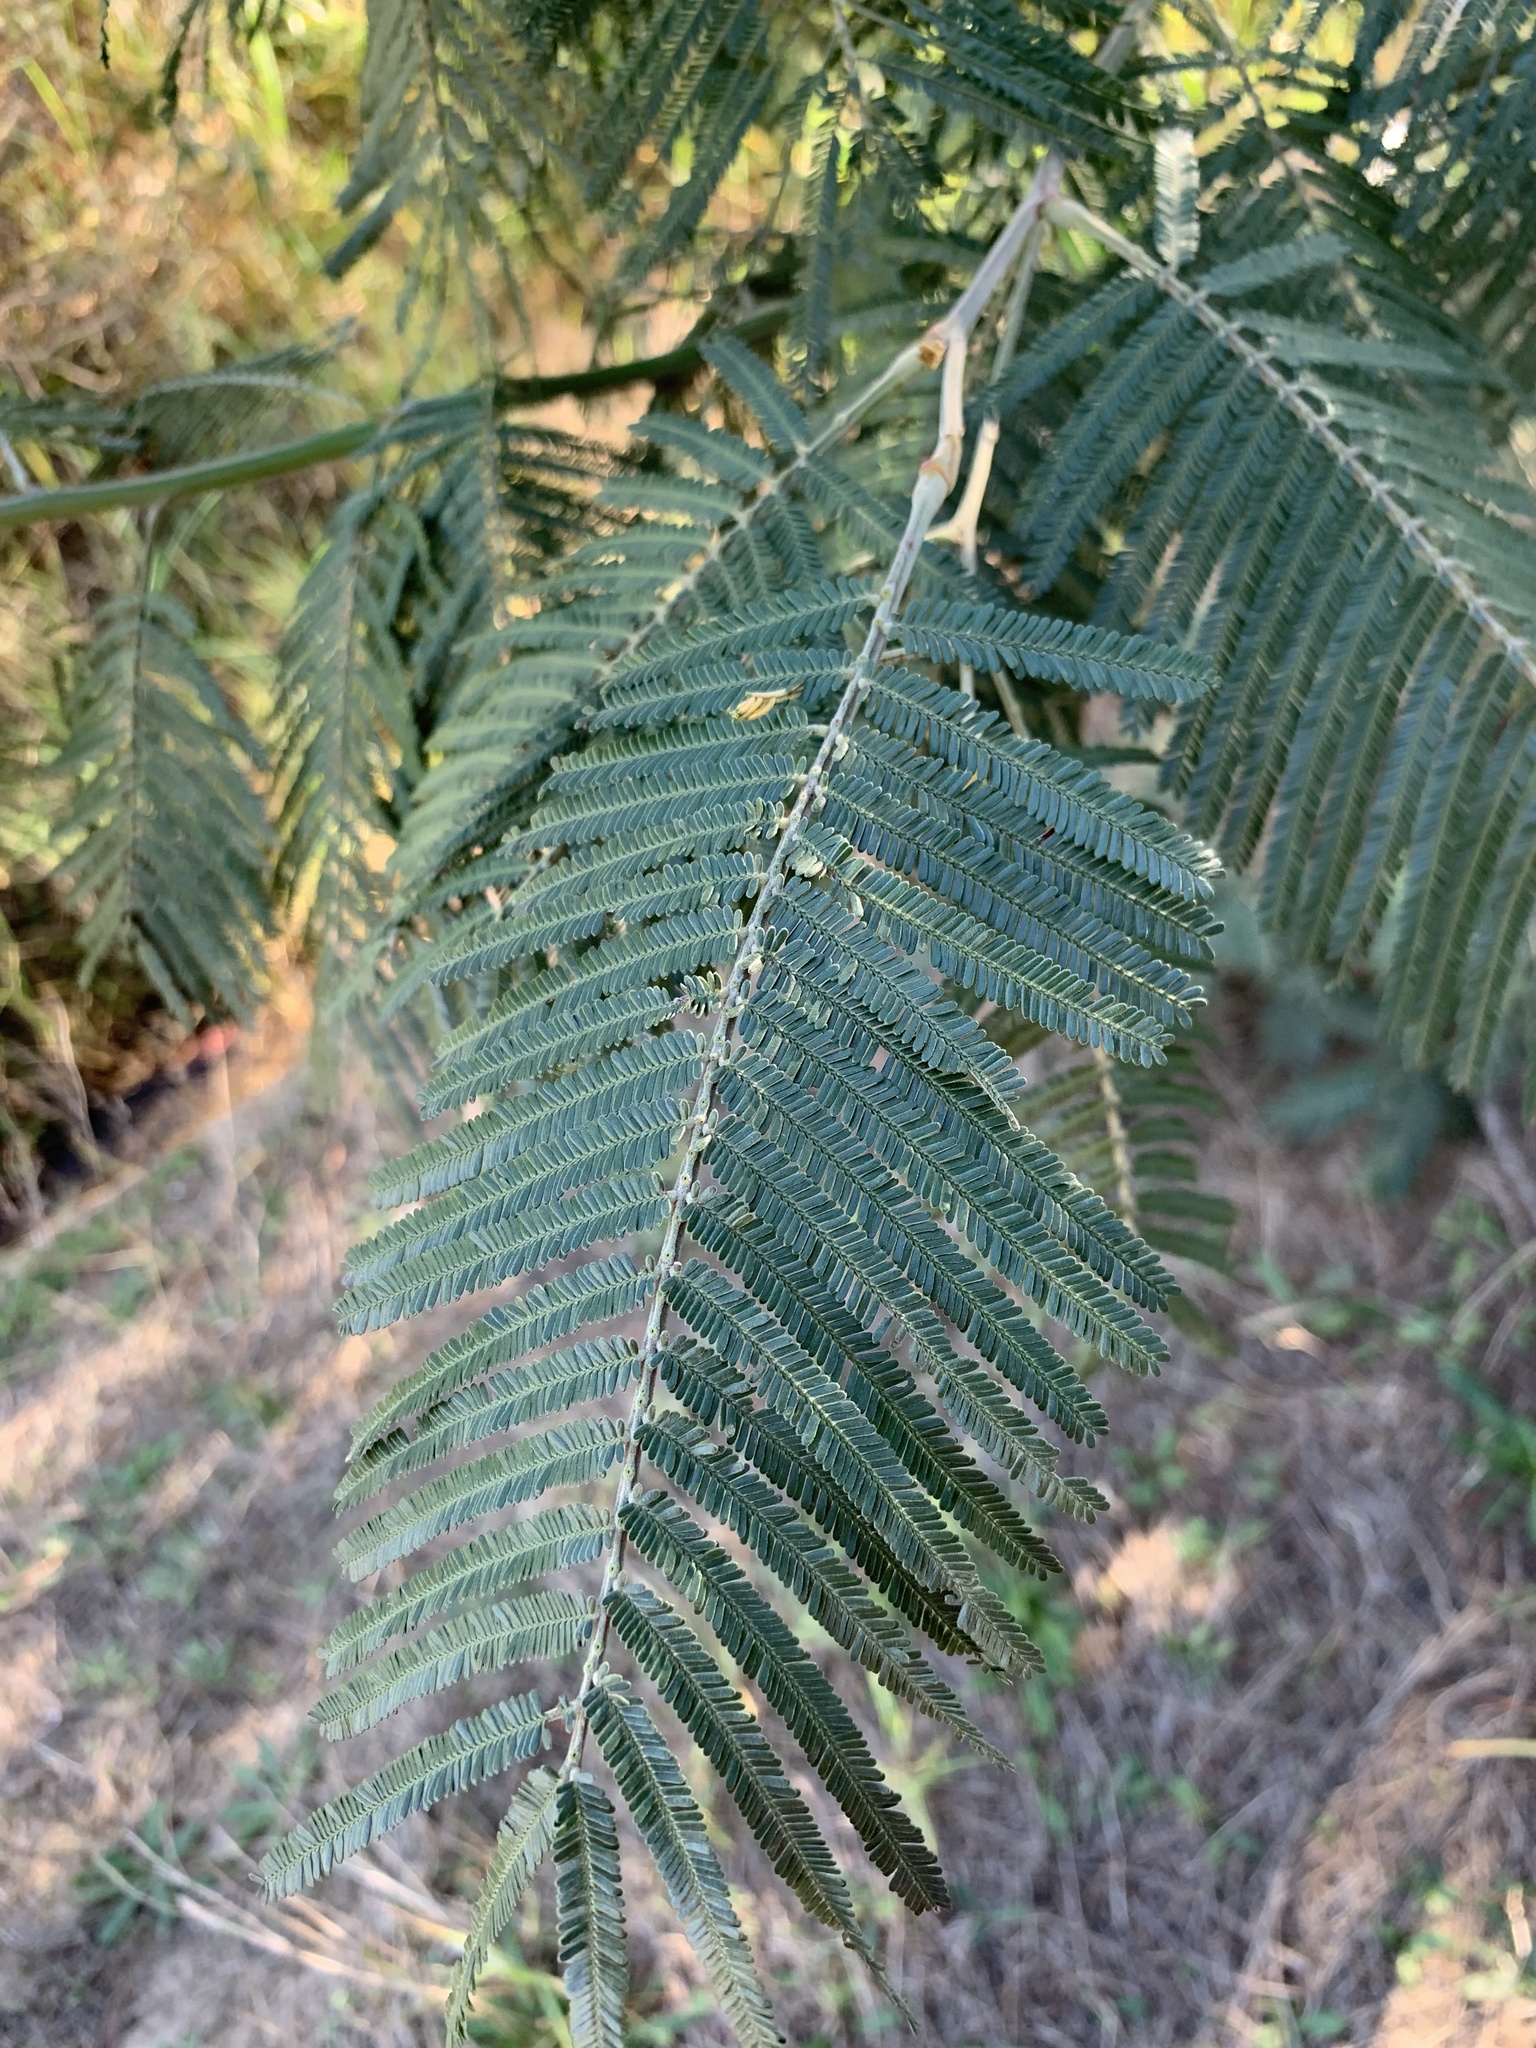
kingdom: Plantae
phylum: Tracheophyta
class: Magnoliopsida
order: Fabales
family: Fabaceae
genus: Acacia
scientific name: Acacia mearnsii
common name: Black wattle
